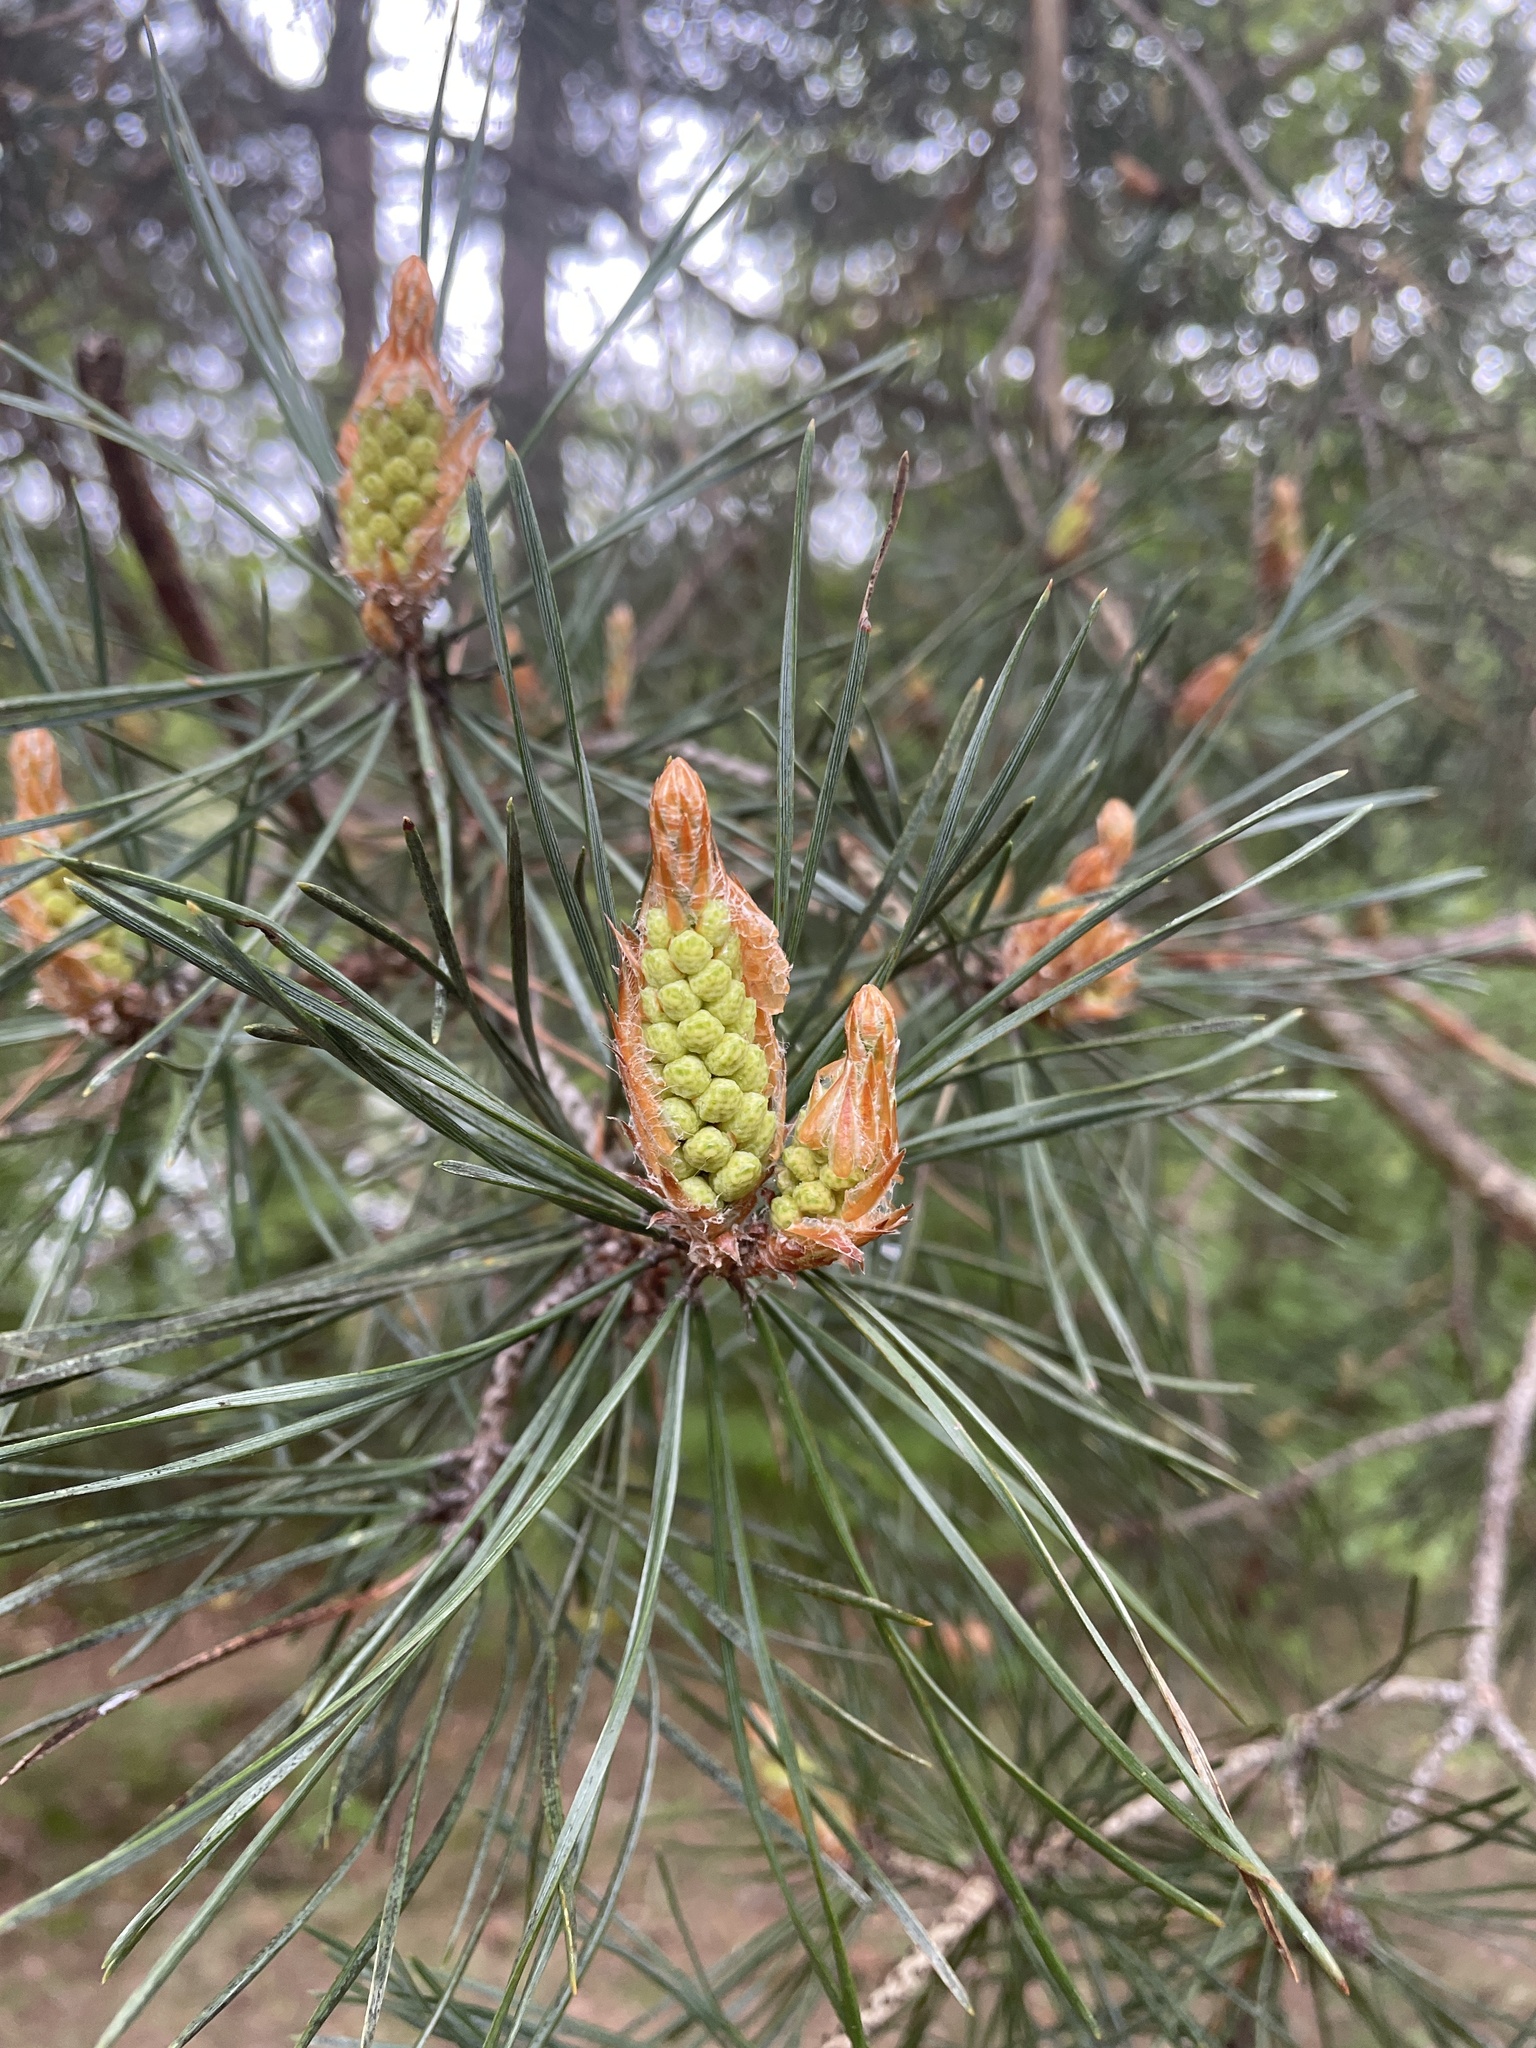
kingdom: Plantae
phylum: Tracheophyta
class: Pinopsida
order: Pinales
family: Pinaceae
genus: Pinus
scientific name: Pinus sylvestris
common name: Scots pine
